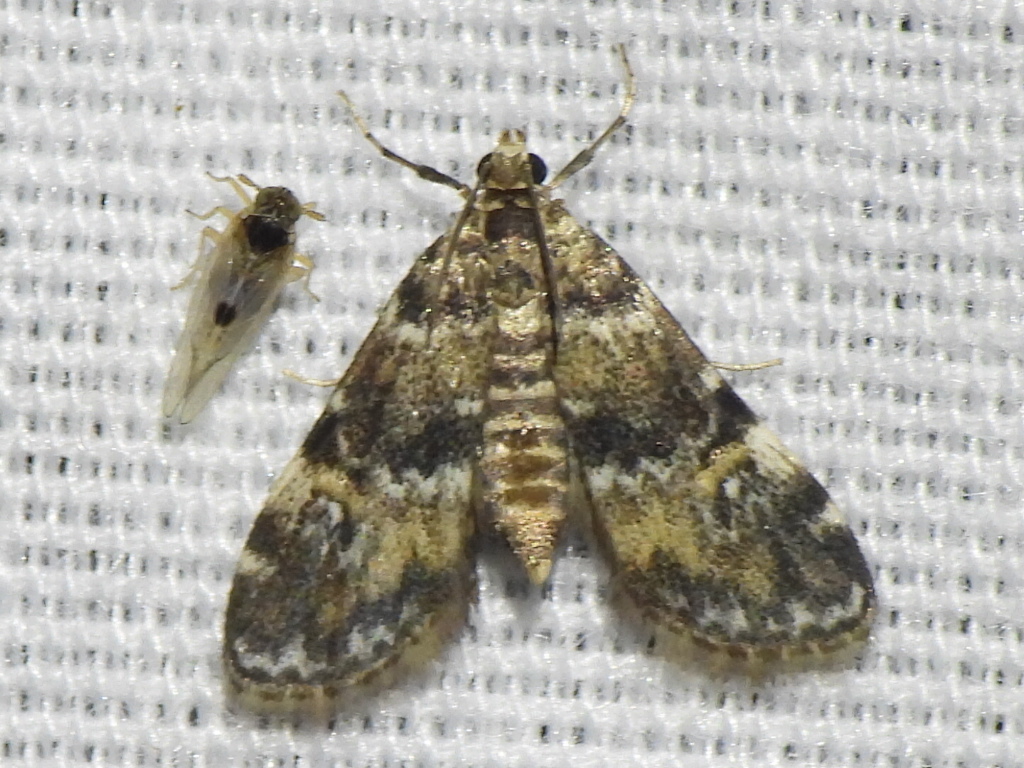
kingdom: Animalia
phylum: Arthropoda
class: Insecta
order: Lepidoptera
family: Crambidae
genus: Elophila
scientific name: Elophila obliteralis
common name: Waterlily leafcutter moth
